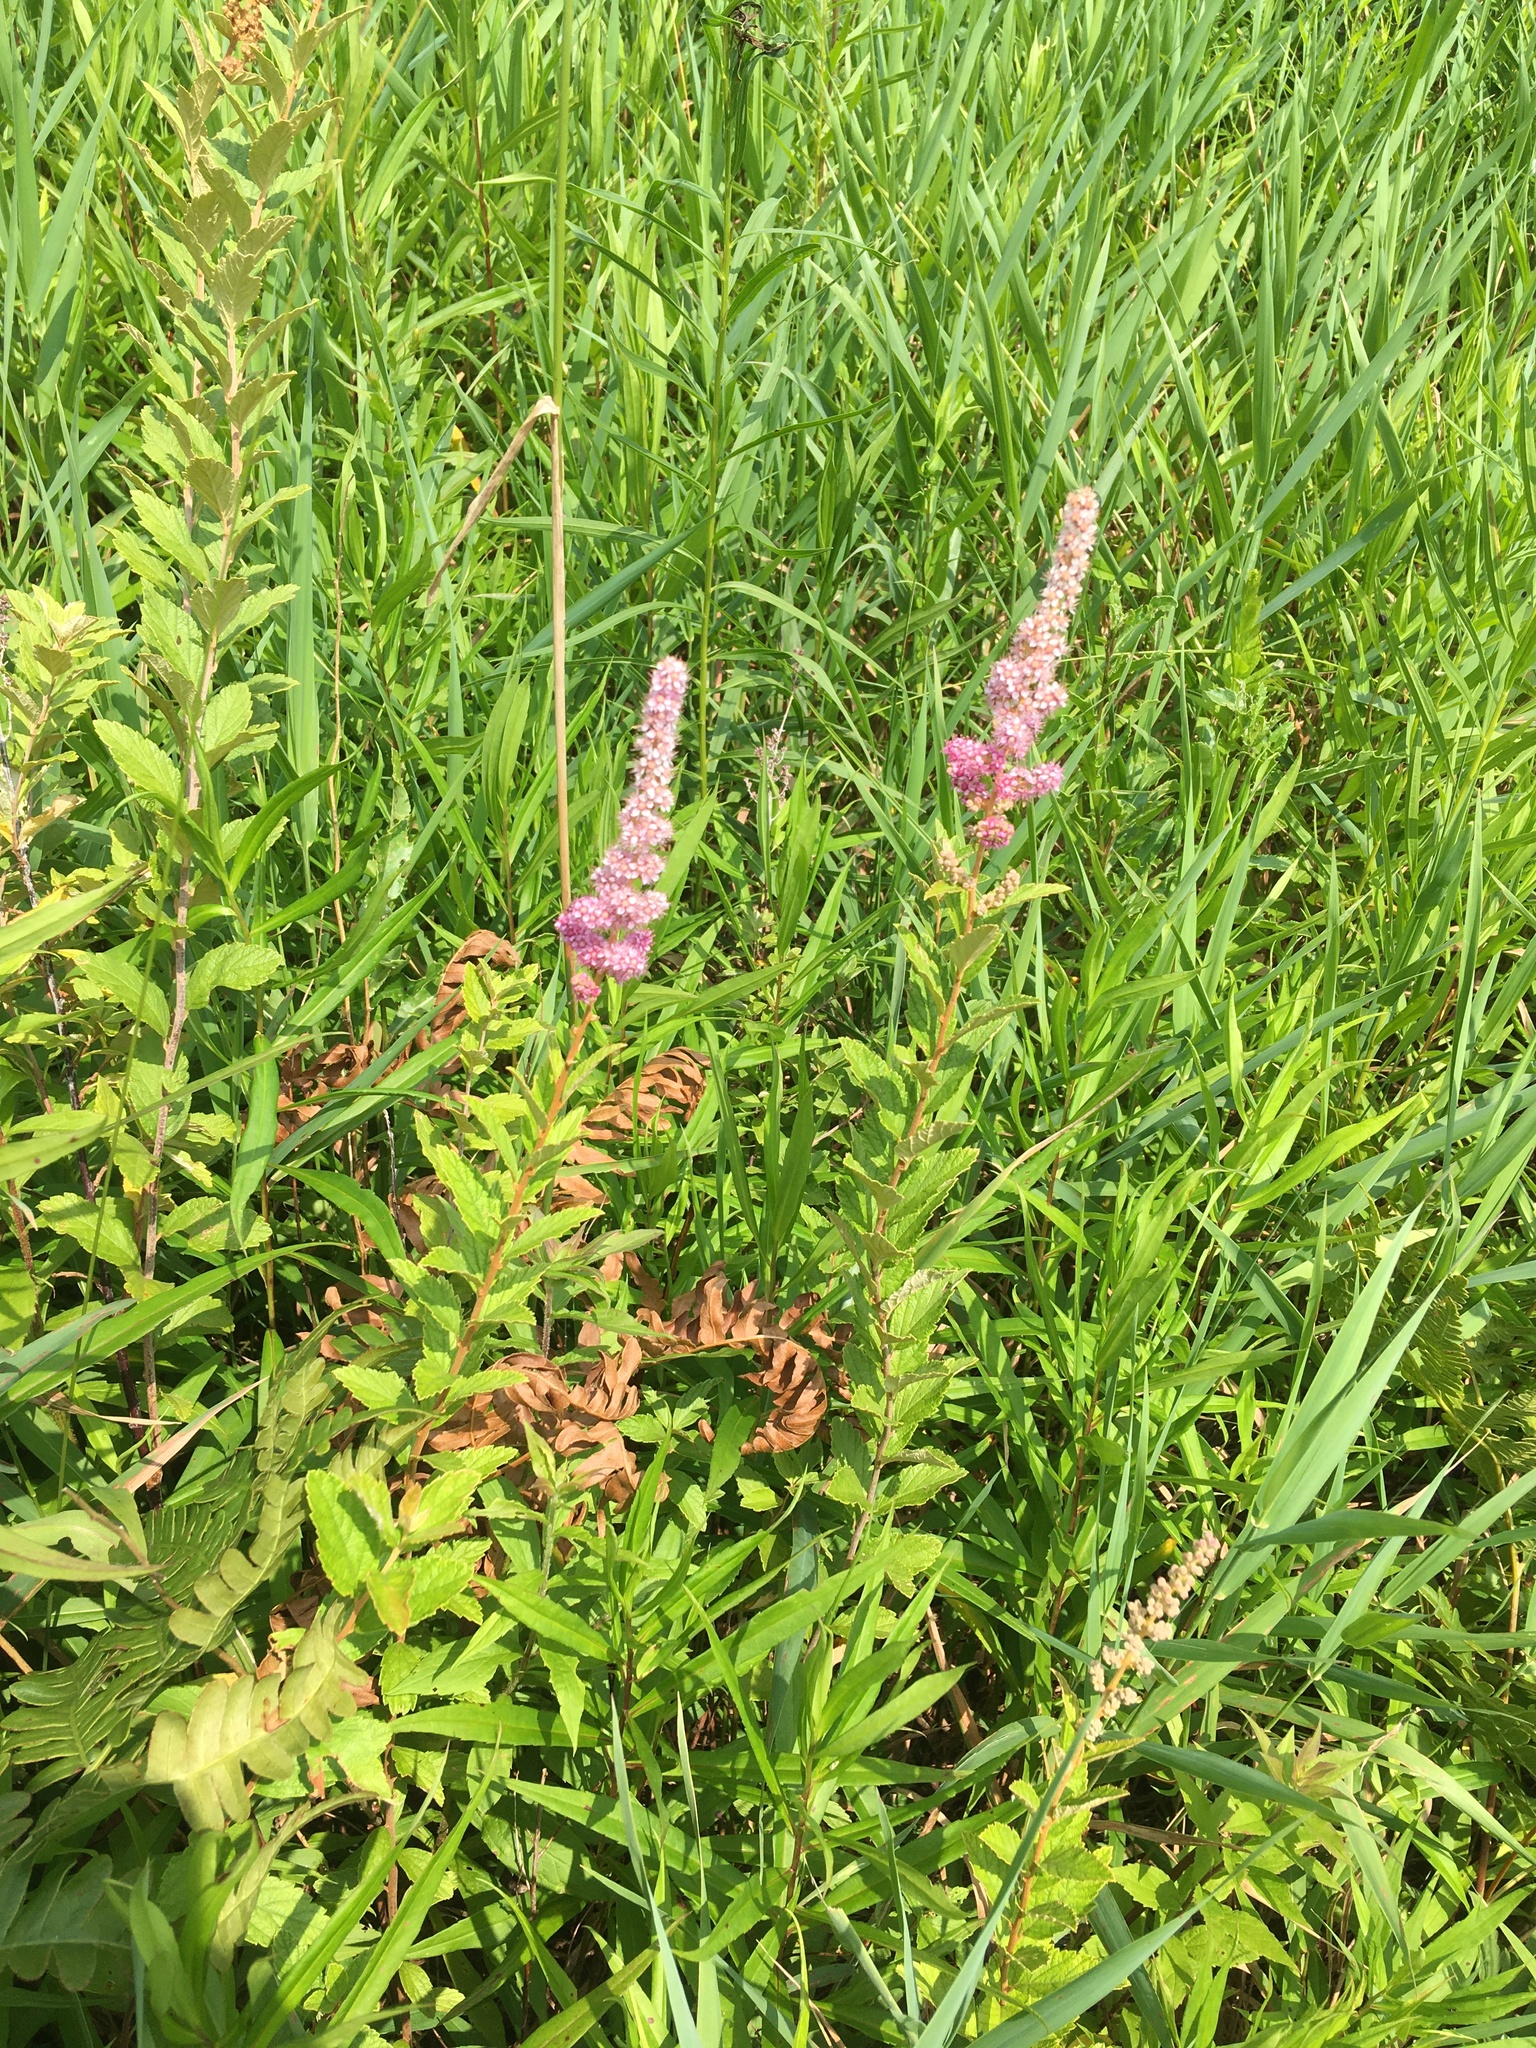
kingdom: Plantae
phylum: Tracheophyta
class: Magnoliopsida
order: Rosales
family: Rosaceae
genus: Spiraea
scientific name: Spiraea tomentosa
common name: Hardhack
